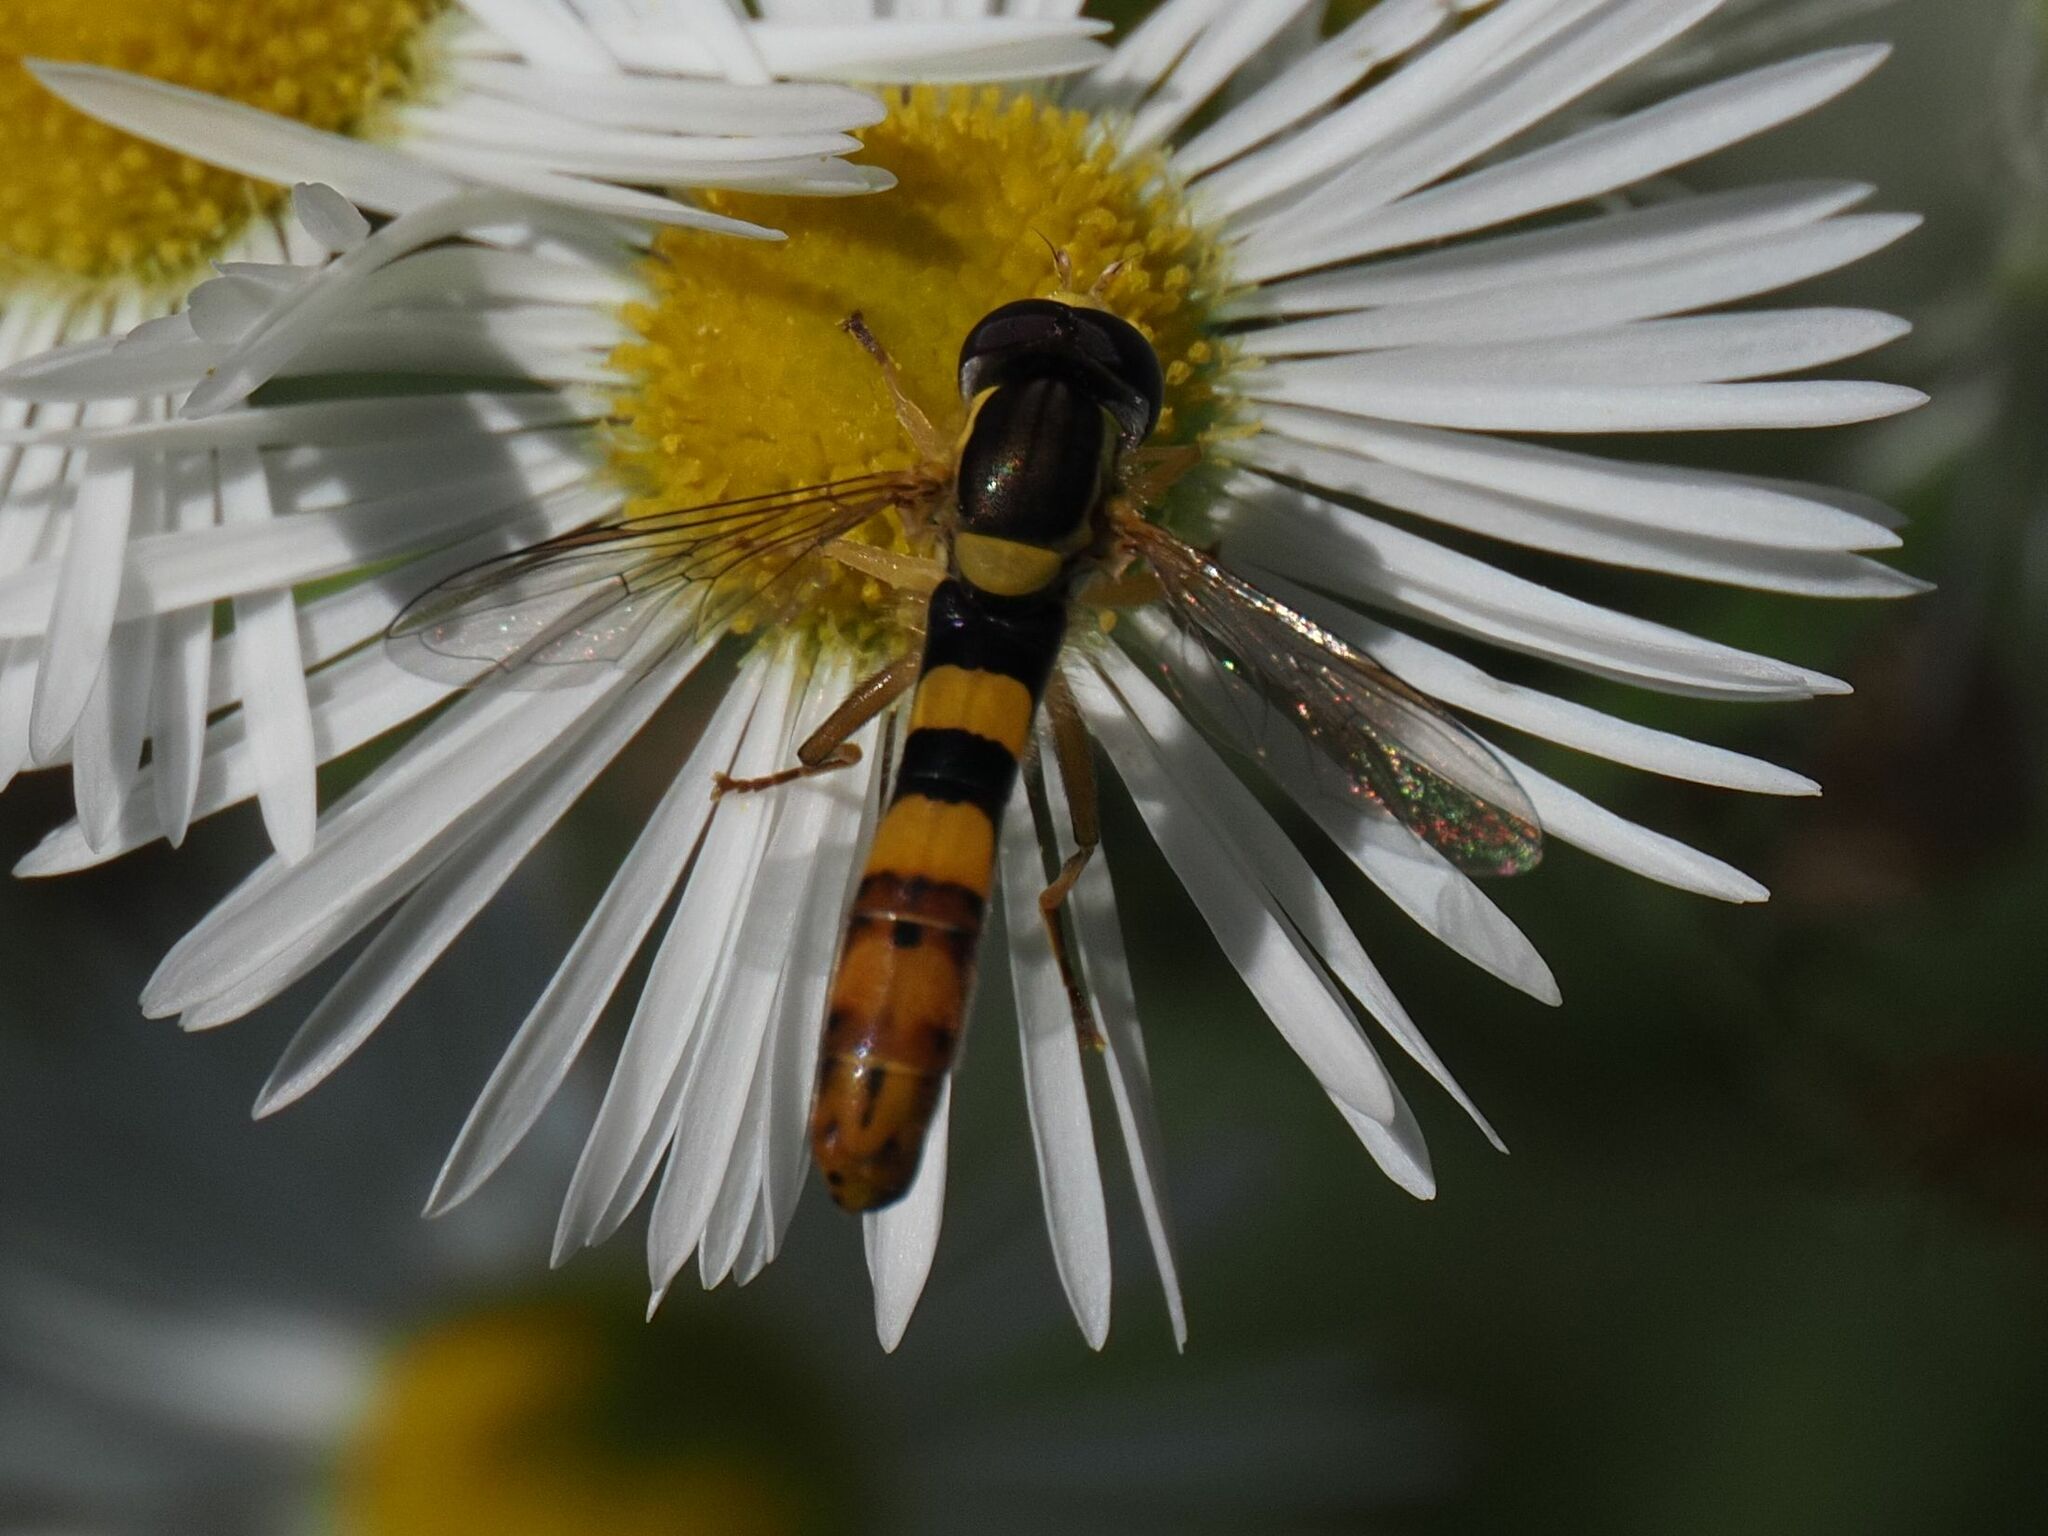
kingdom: Animalia
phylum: Arthropoda
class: Insecta
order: Diptera
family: Syrphidae
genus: Sphaerophoria
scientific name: Sphaerophoria scripta
